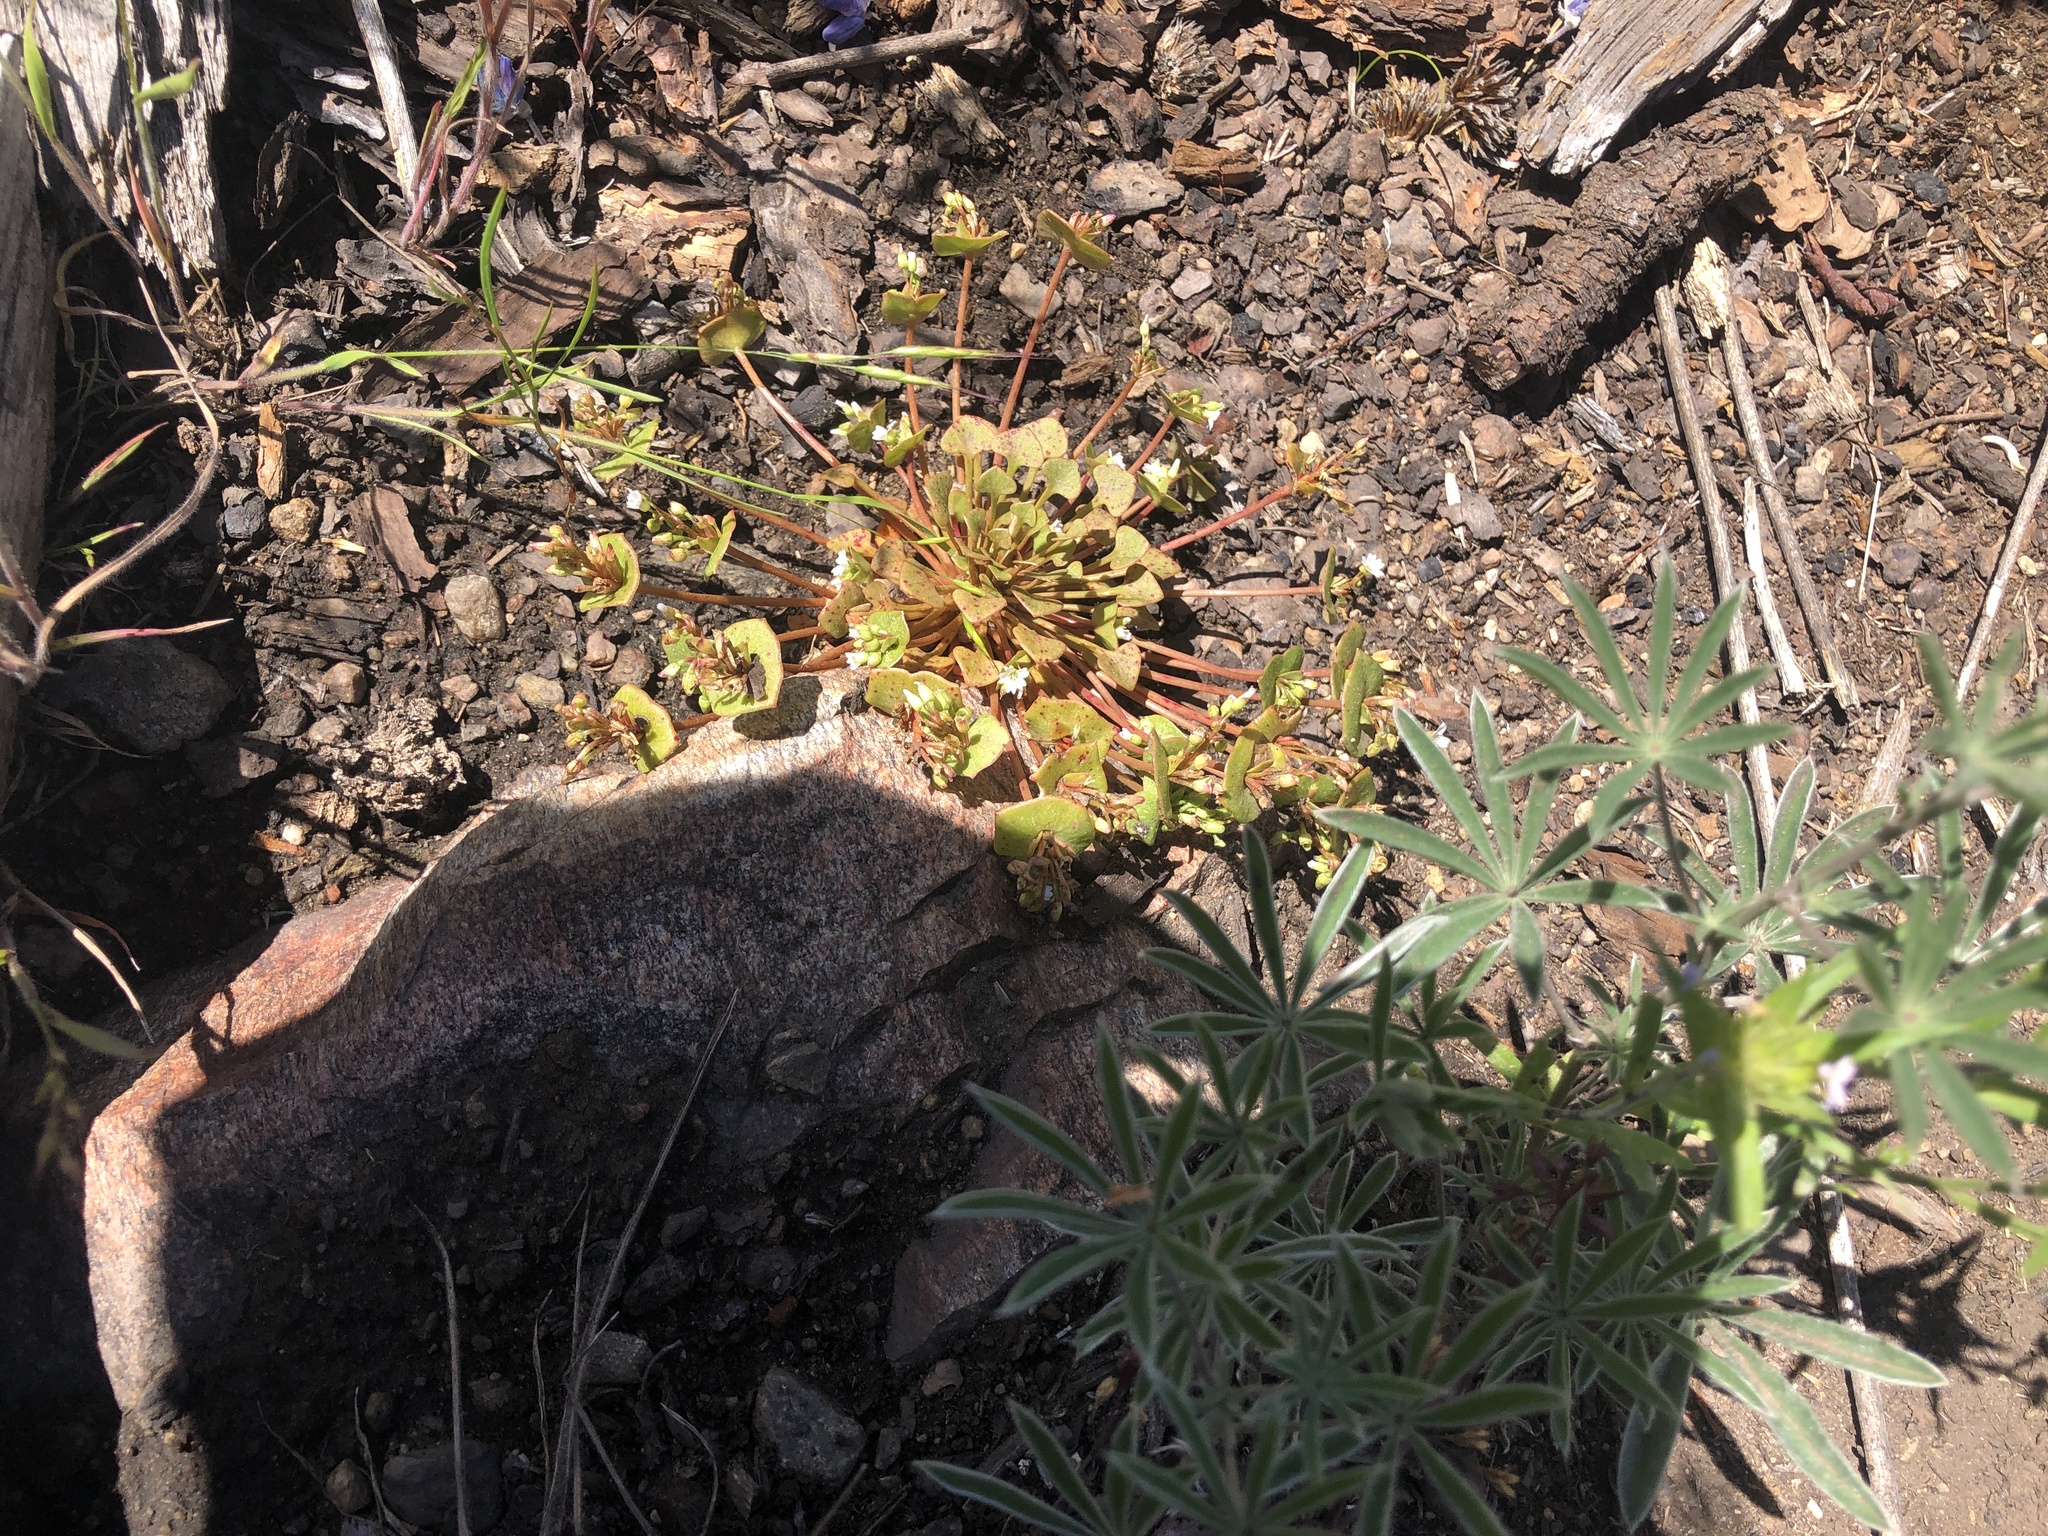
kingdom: Plantae
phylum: Tracheophyta
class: Magnoliopsida
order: Caryophyllales
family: Montiaceae
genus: Claytonia
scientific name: Claytonia rubra
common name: Erubescent miner's-lettuce
